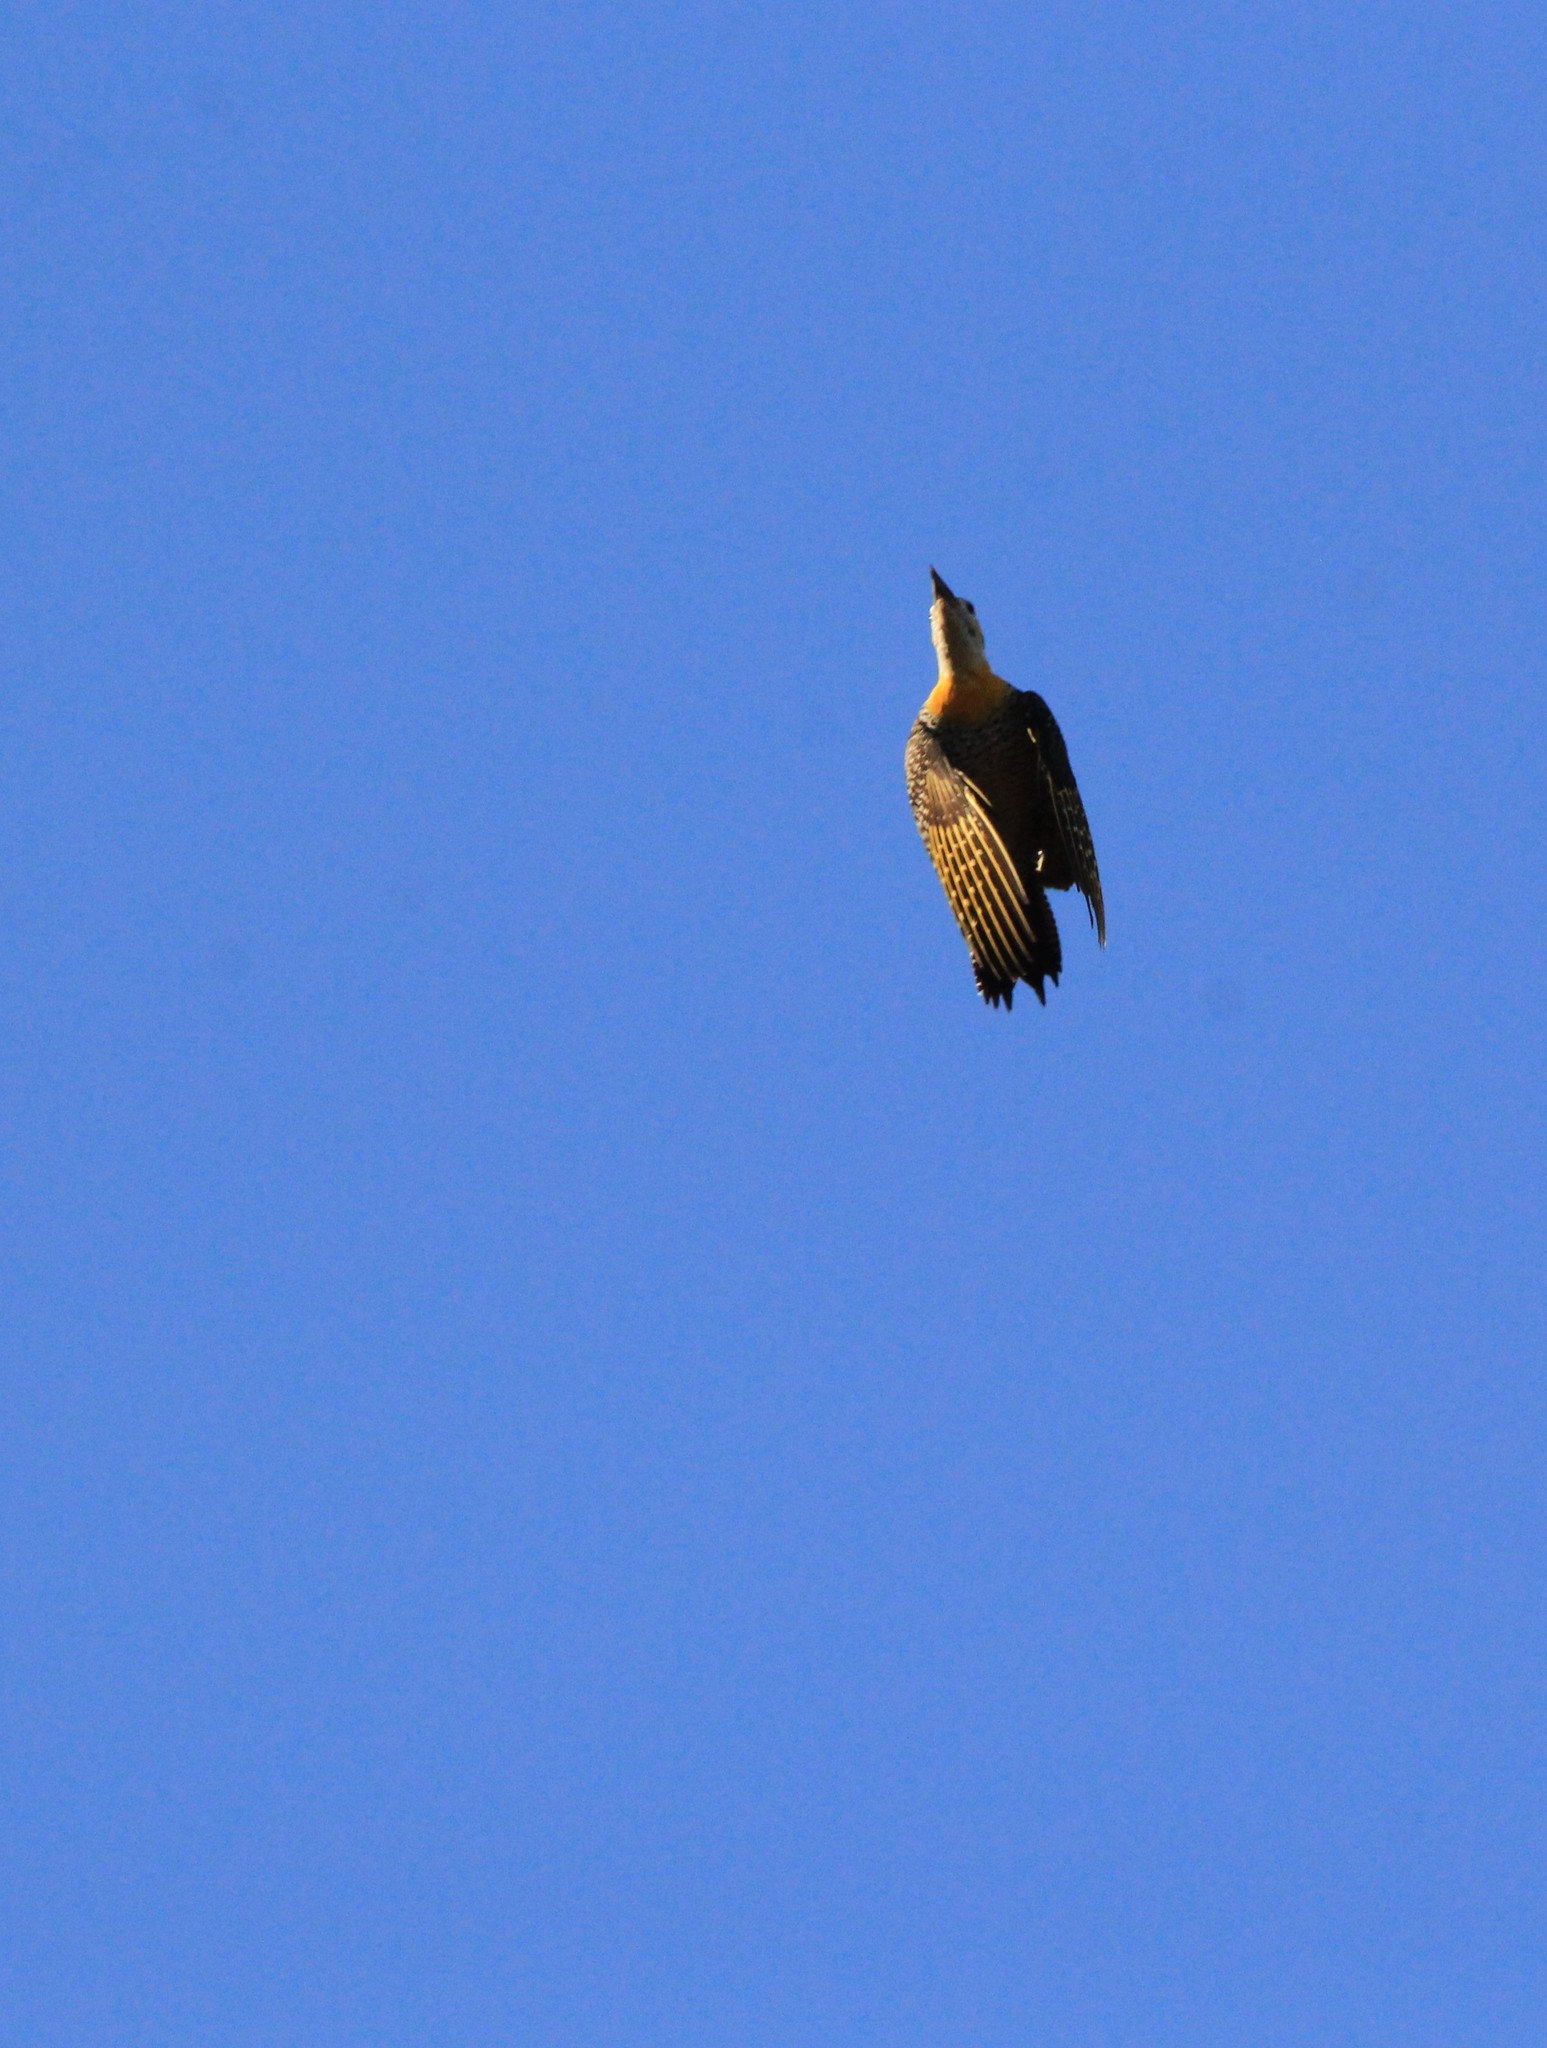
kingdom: Animalia
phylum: Chordata
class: Aves
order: Piciformes
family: Picidae
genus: Colaptes
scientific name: Colaptes campestris
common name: Campo flicker
